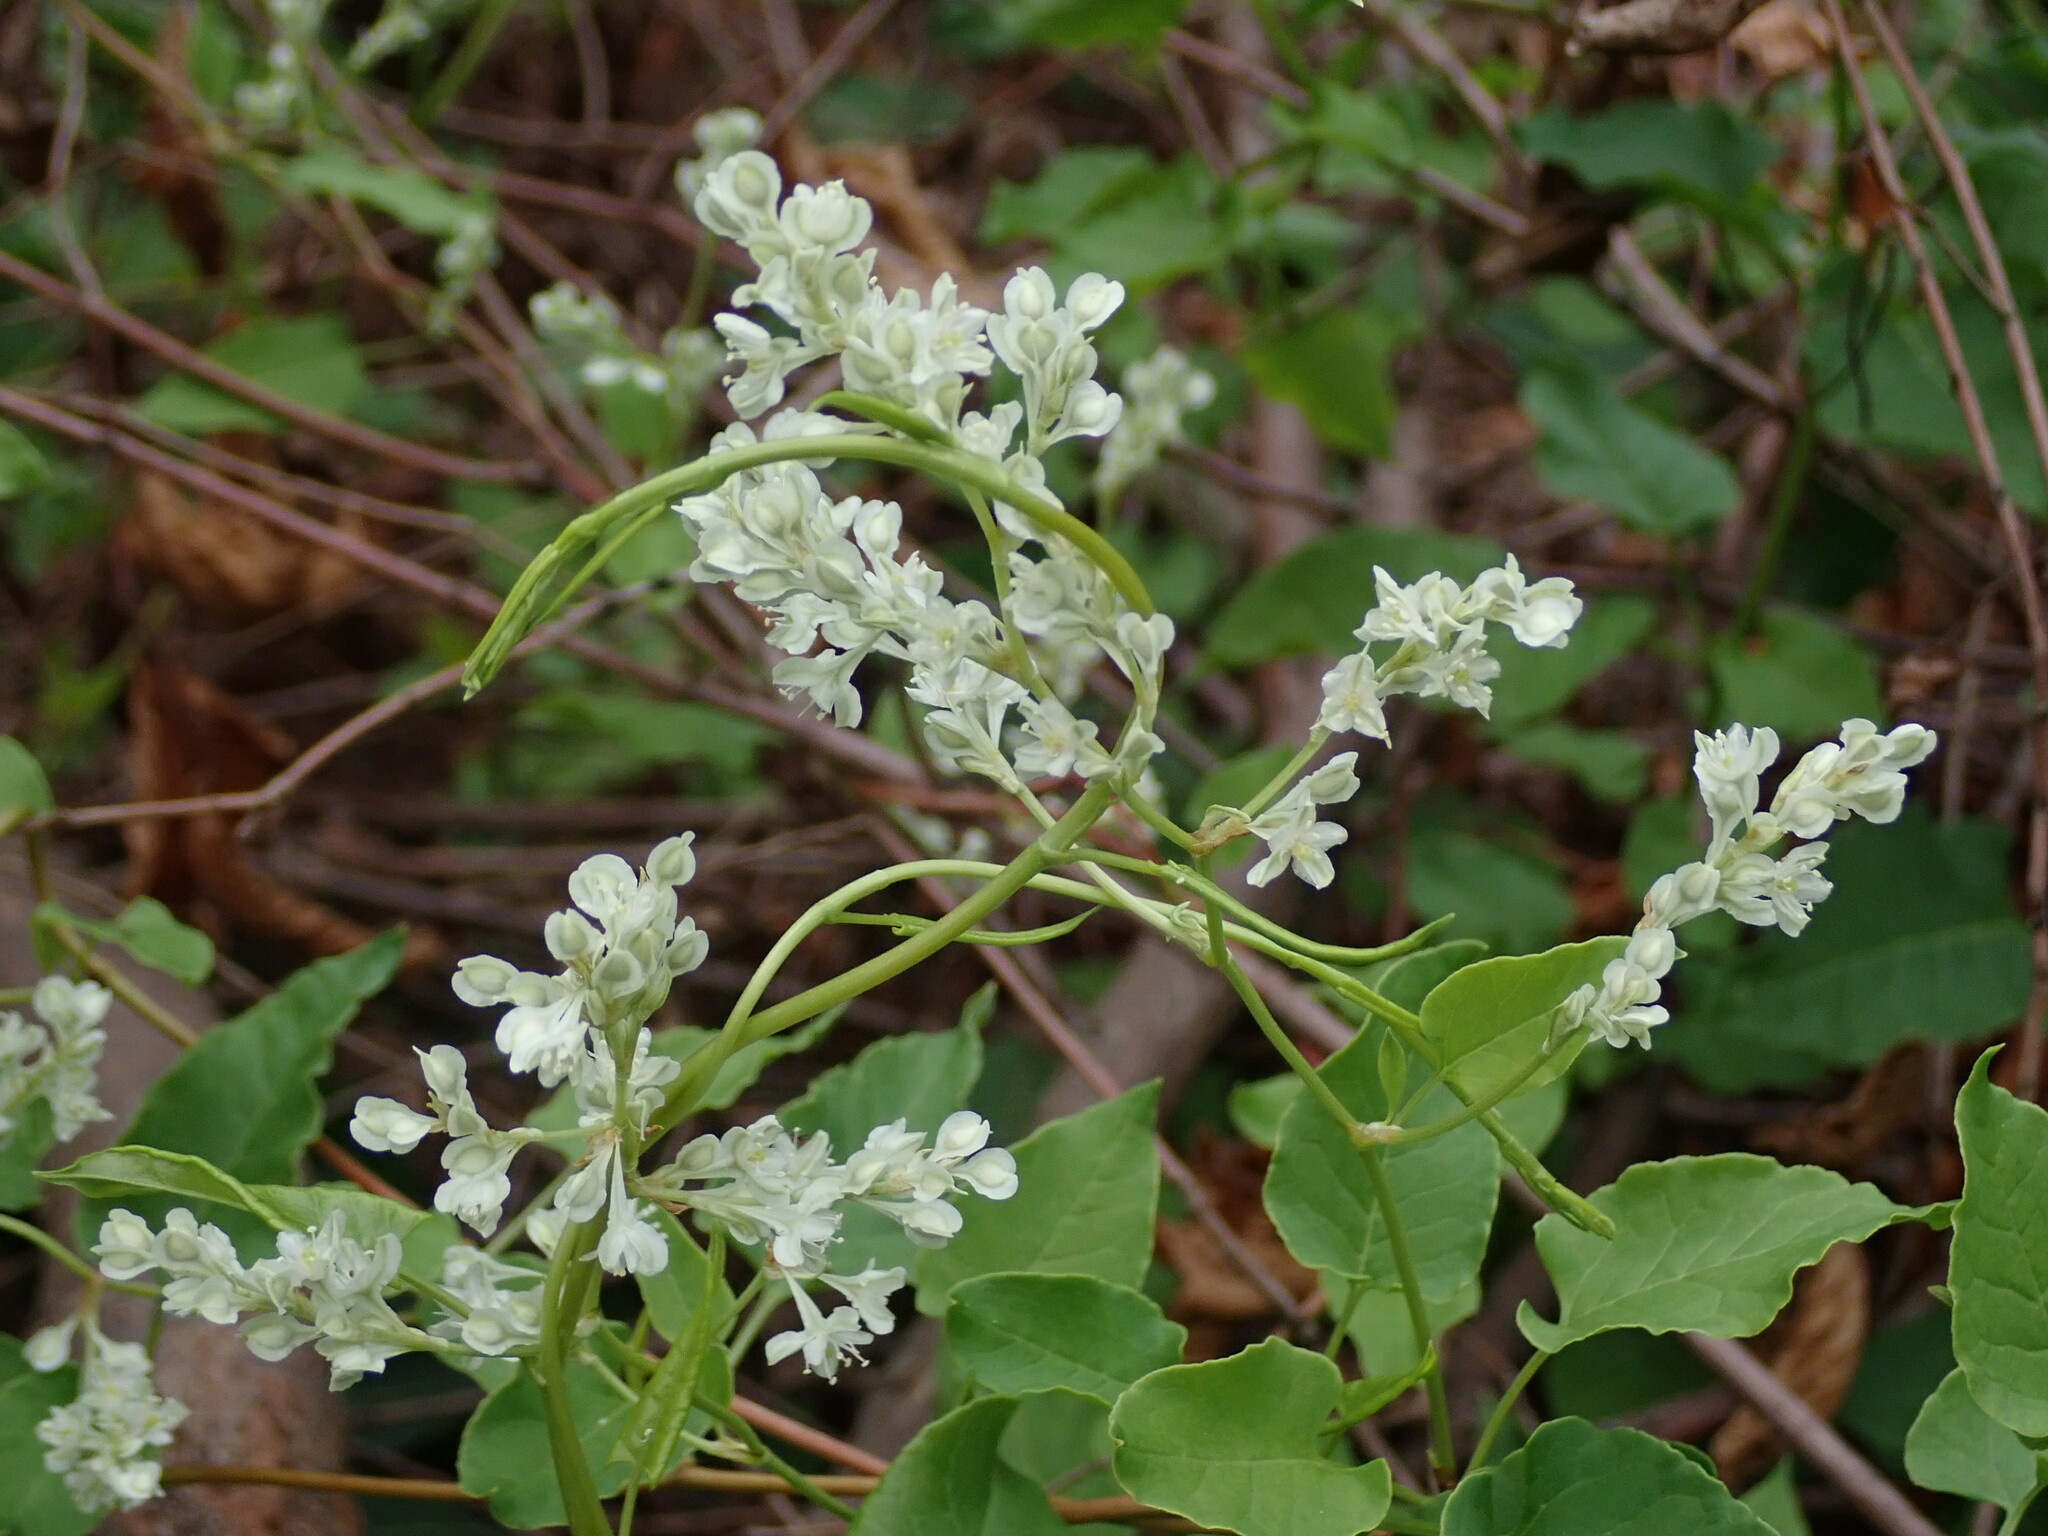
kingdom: Plantae
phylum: Tracheophyta
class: Magnoliopsida
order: Caryophyllales
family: Polygonaceae
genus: Fallopia
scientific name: Fallopia baldschuanica
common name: Russian-vine
